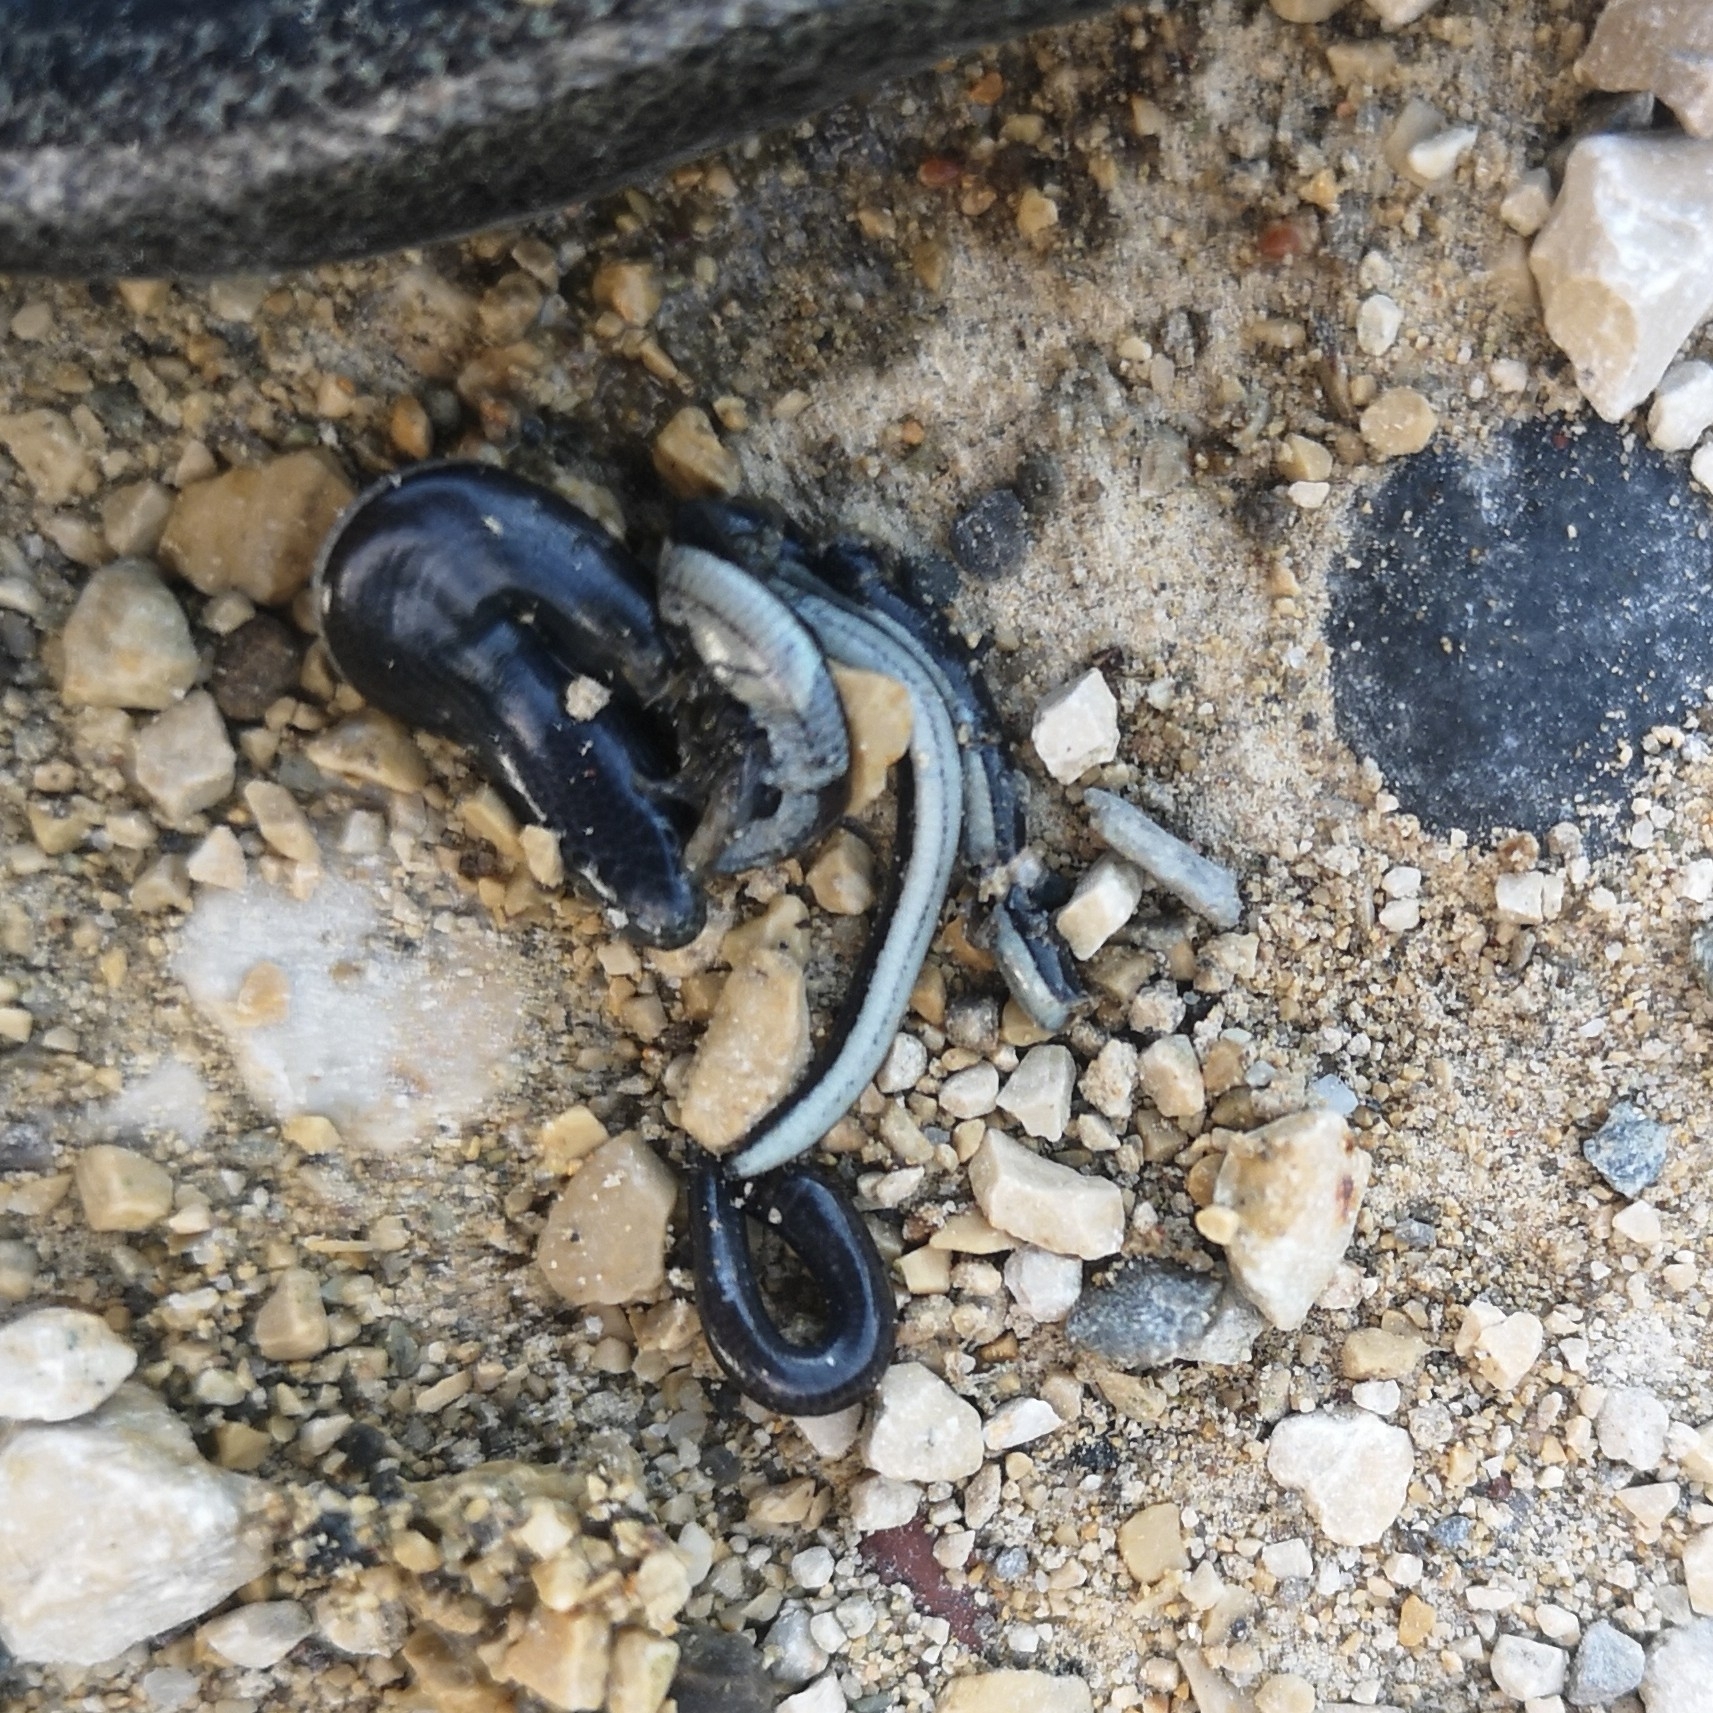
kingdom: Animalia
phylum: Chordata
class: Squamata
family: Anguidae
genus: Anguis
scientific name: Anguis fragilis
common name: Slow worm
